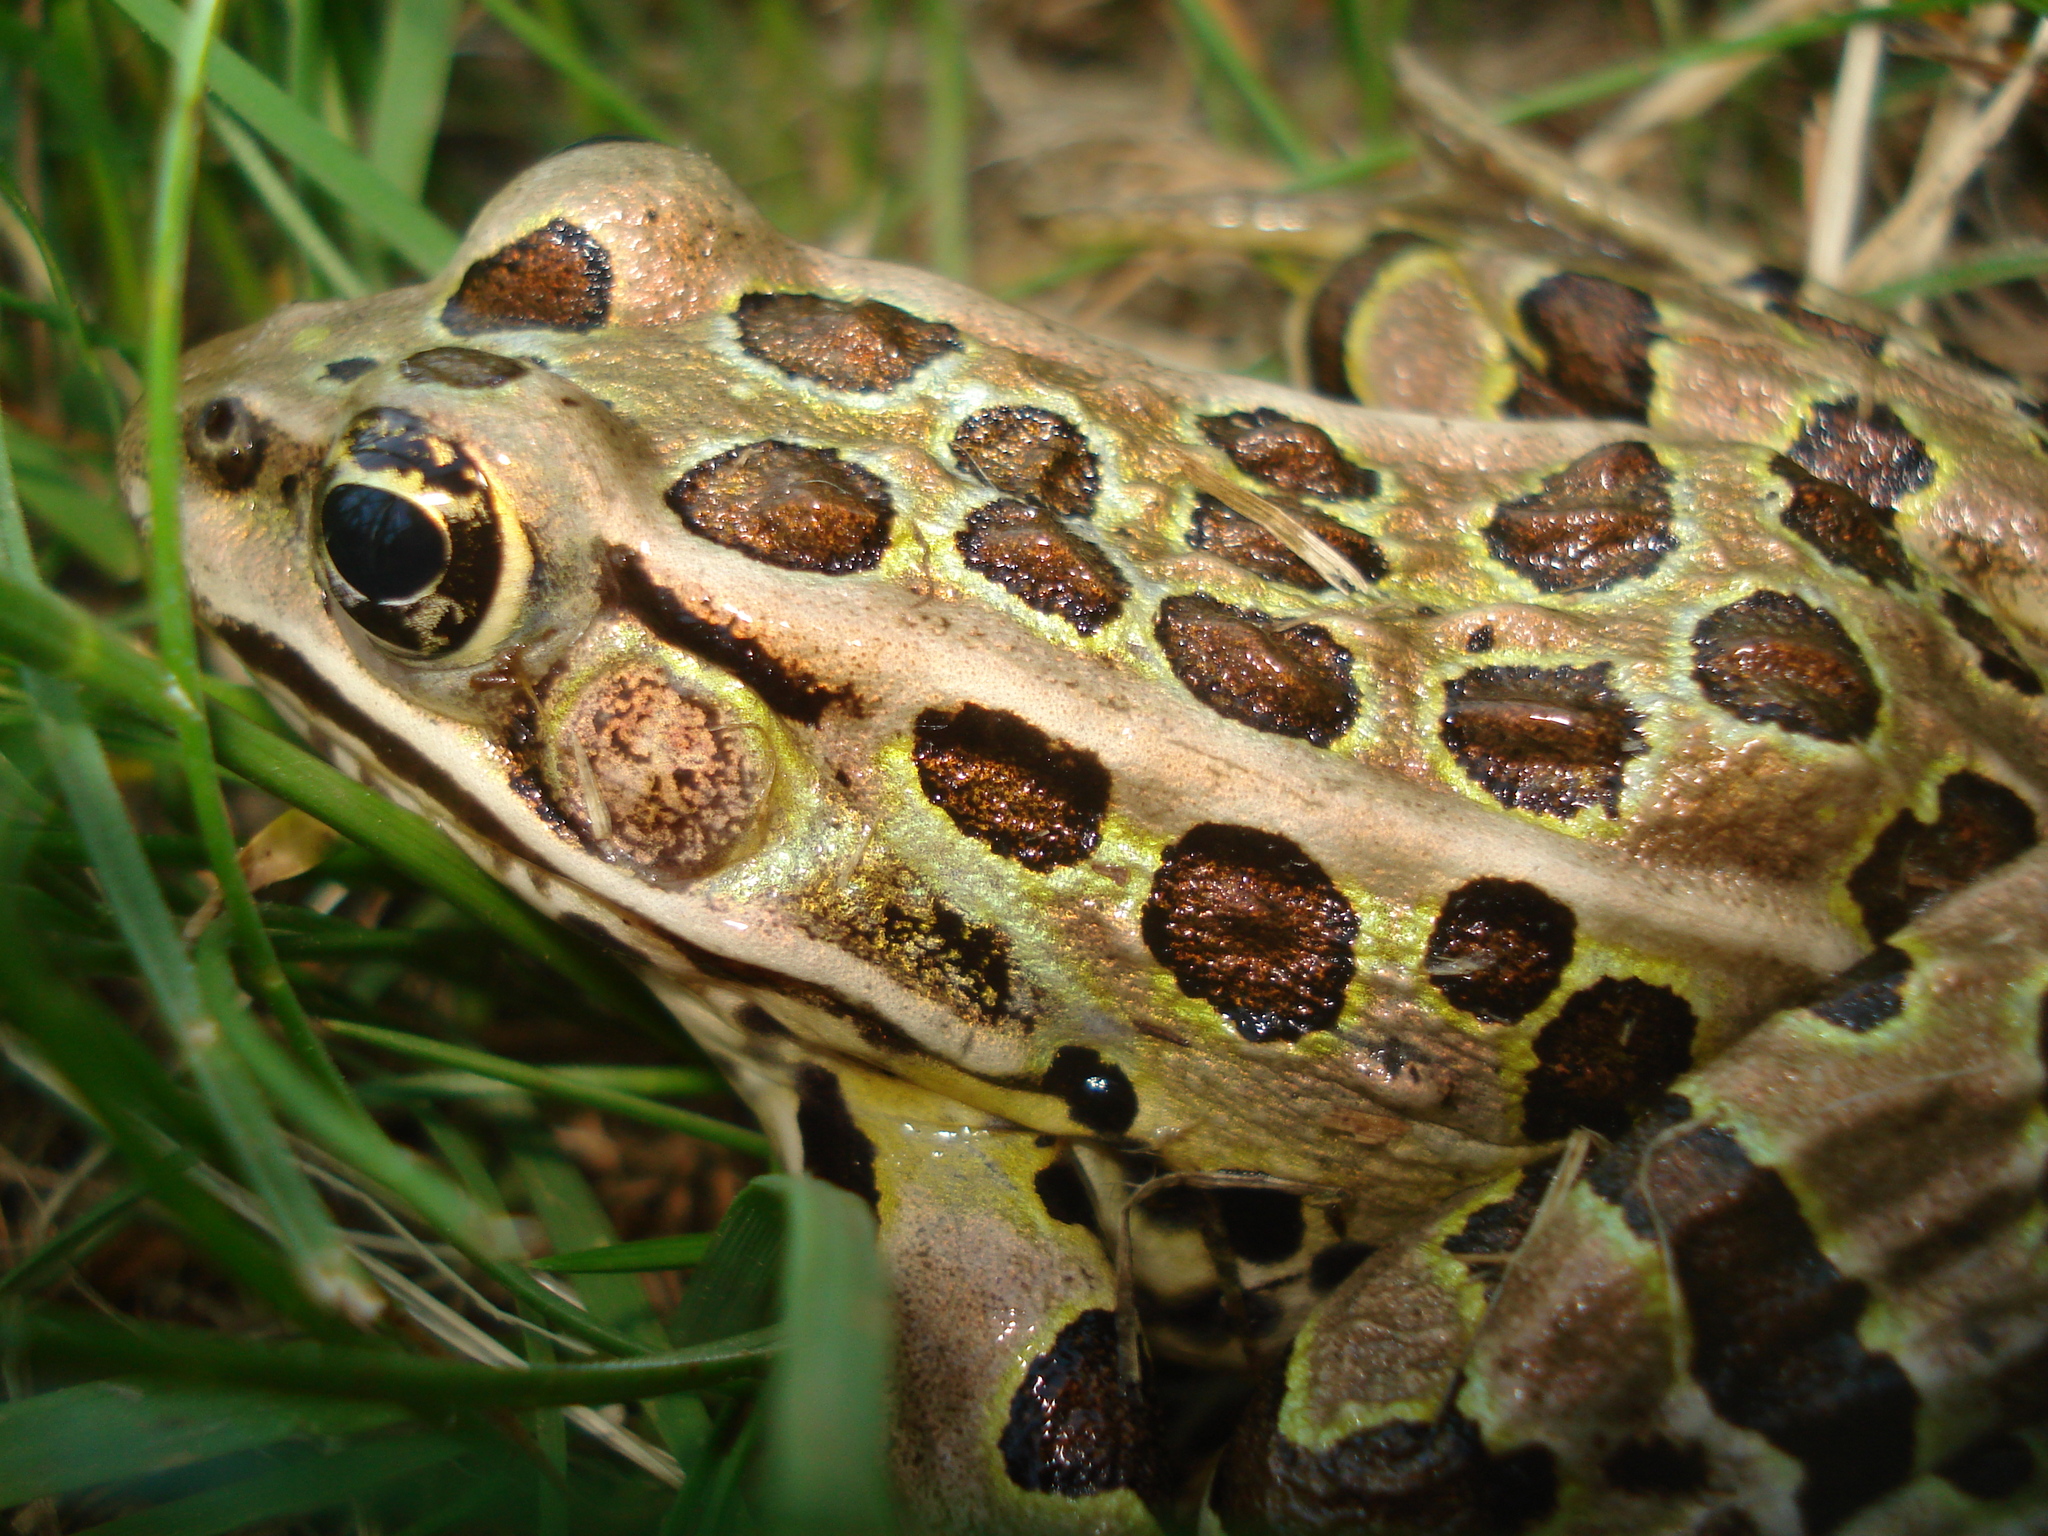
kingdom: Animalia
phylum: Chordata
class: Amphibia
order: Anura
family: Ranidae
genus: Lithobates
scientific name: Lithobates pipiens
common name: Northern leopard frog
